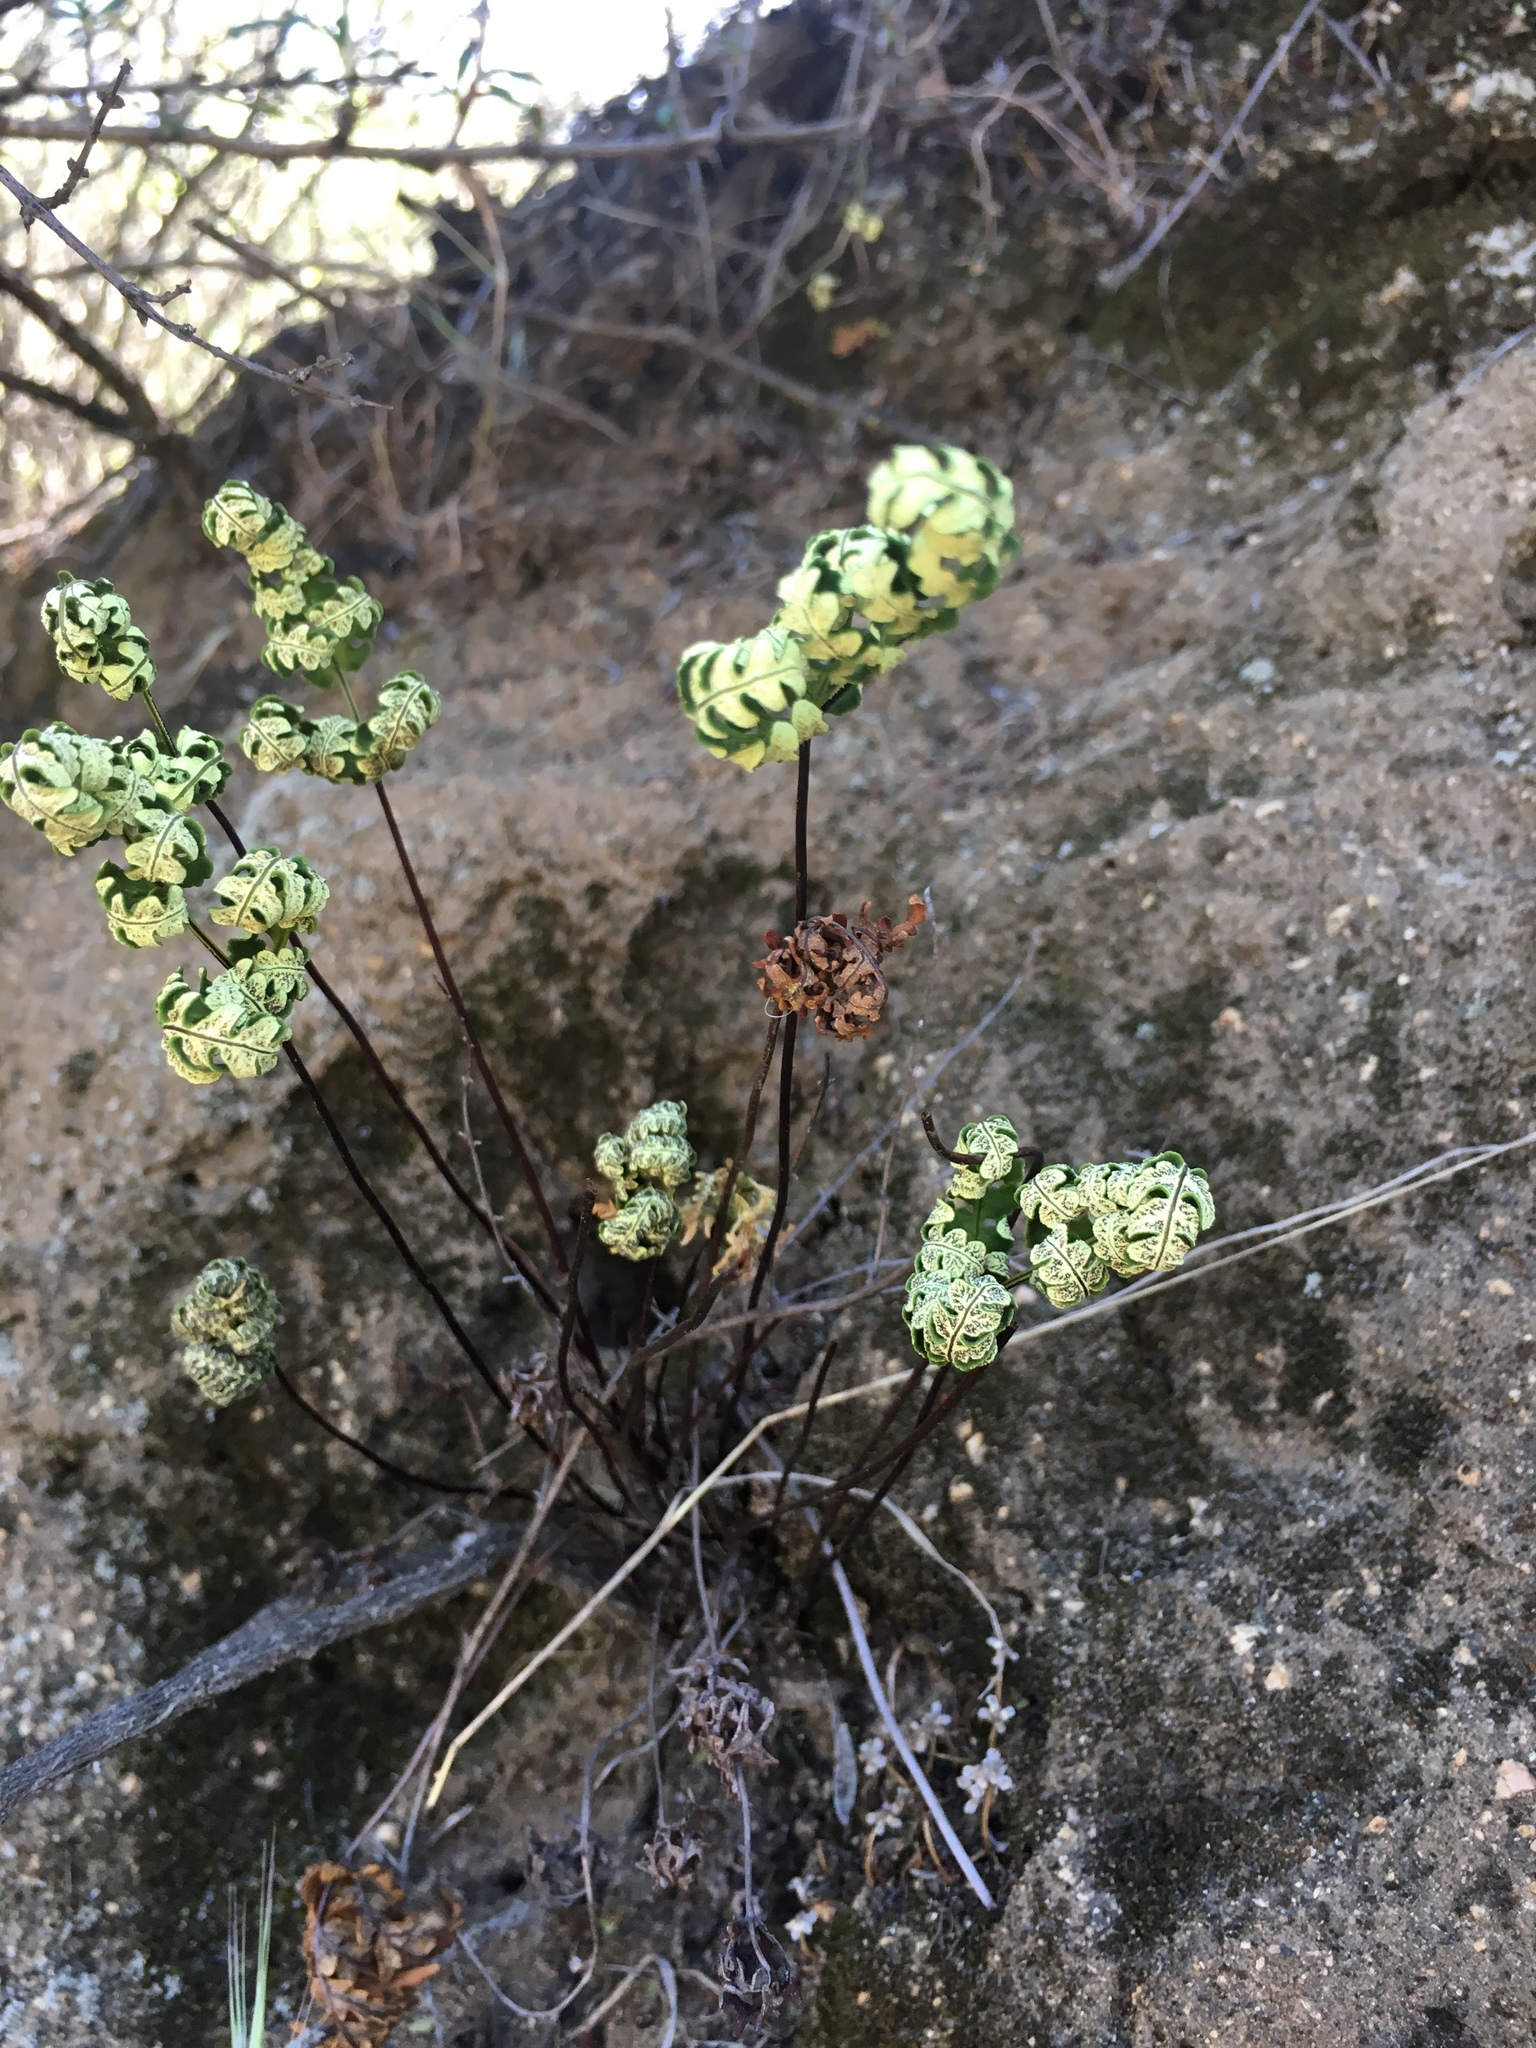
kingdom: Plantae
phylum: Tracheophyta
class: Polypodiopsida
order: Polypodiales
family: Pteridaceae
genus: Pentagramma
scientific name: Pentagramma triangularis
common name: Gold fern
